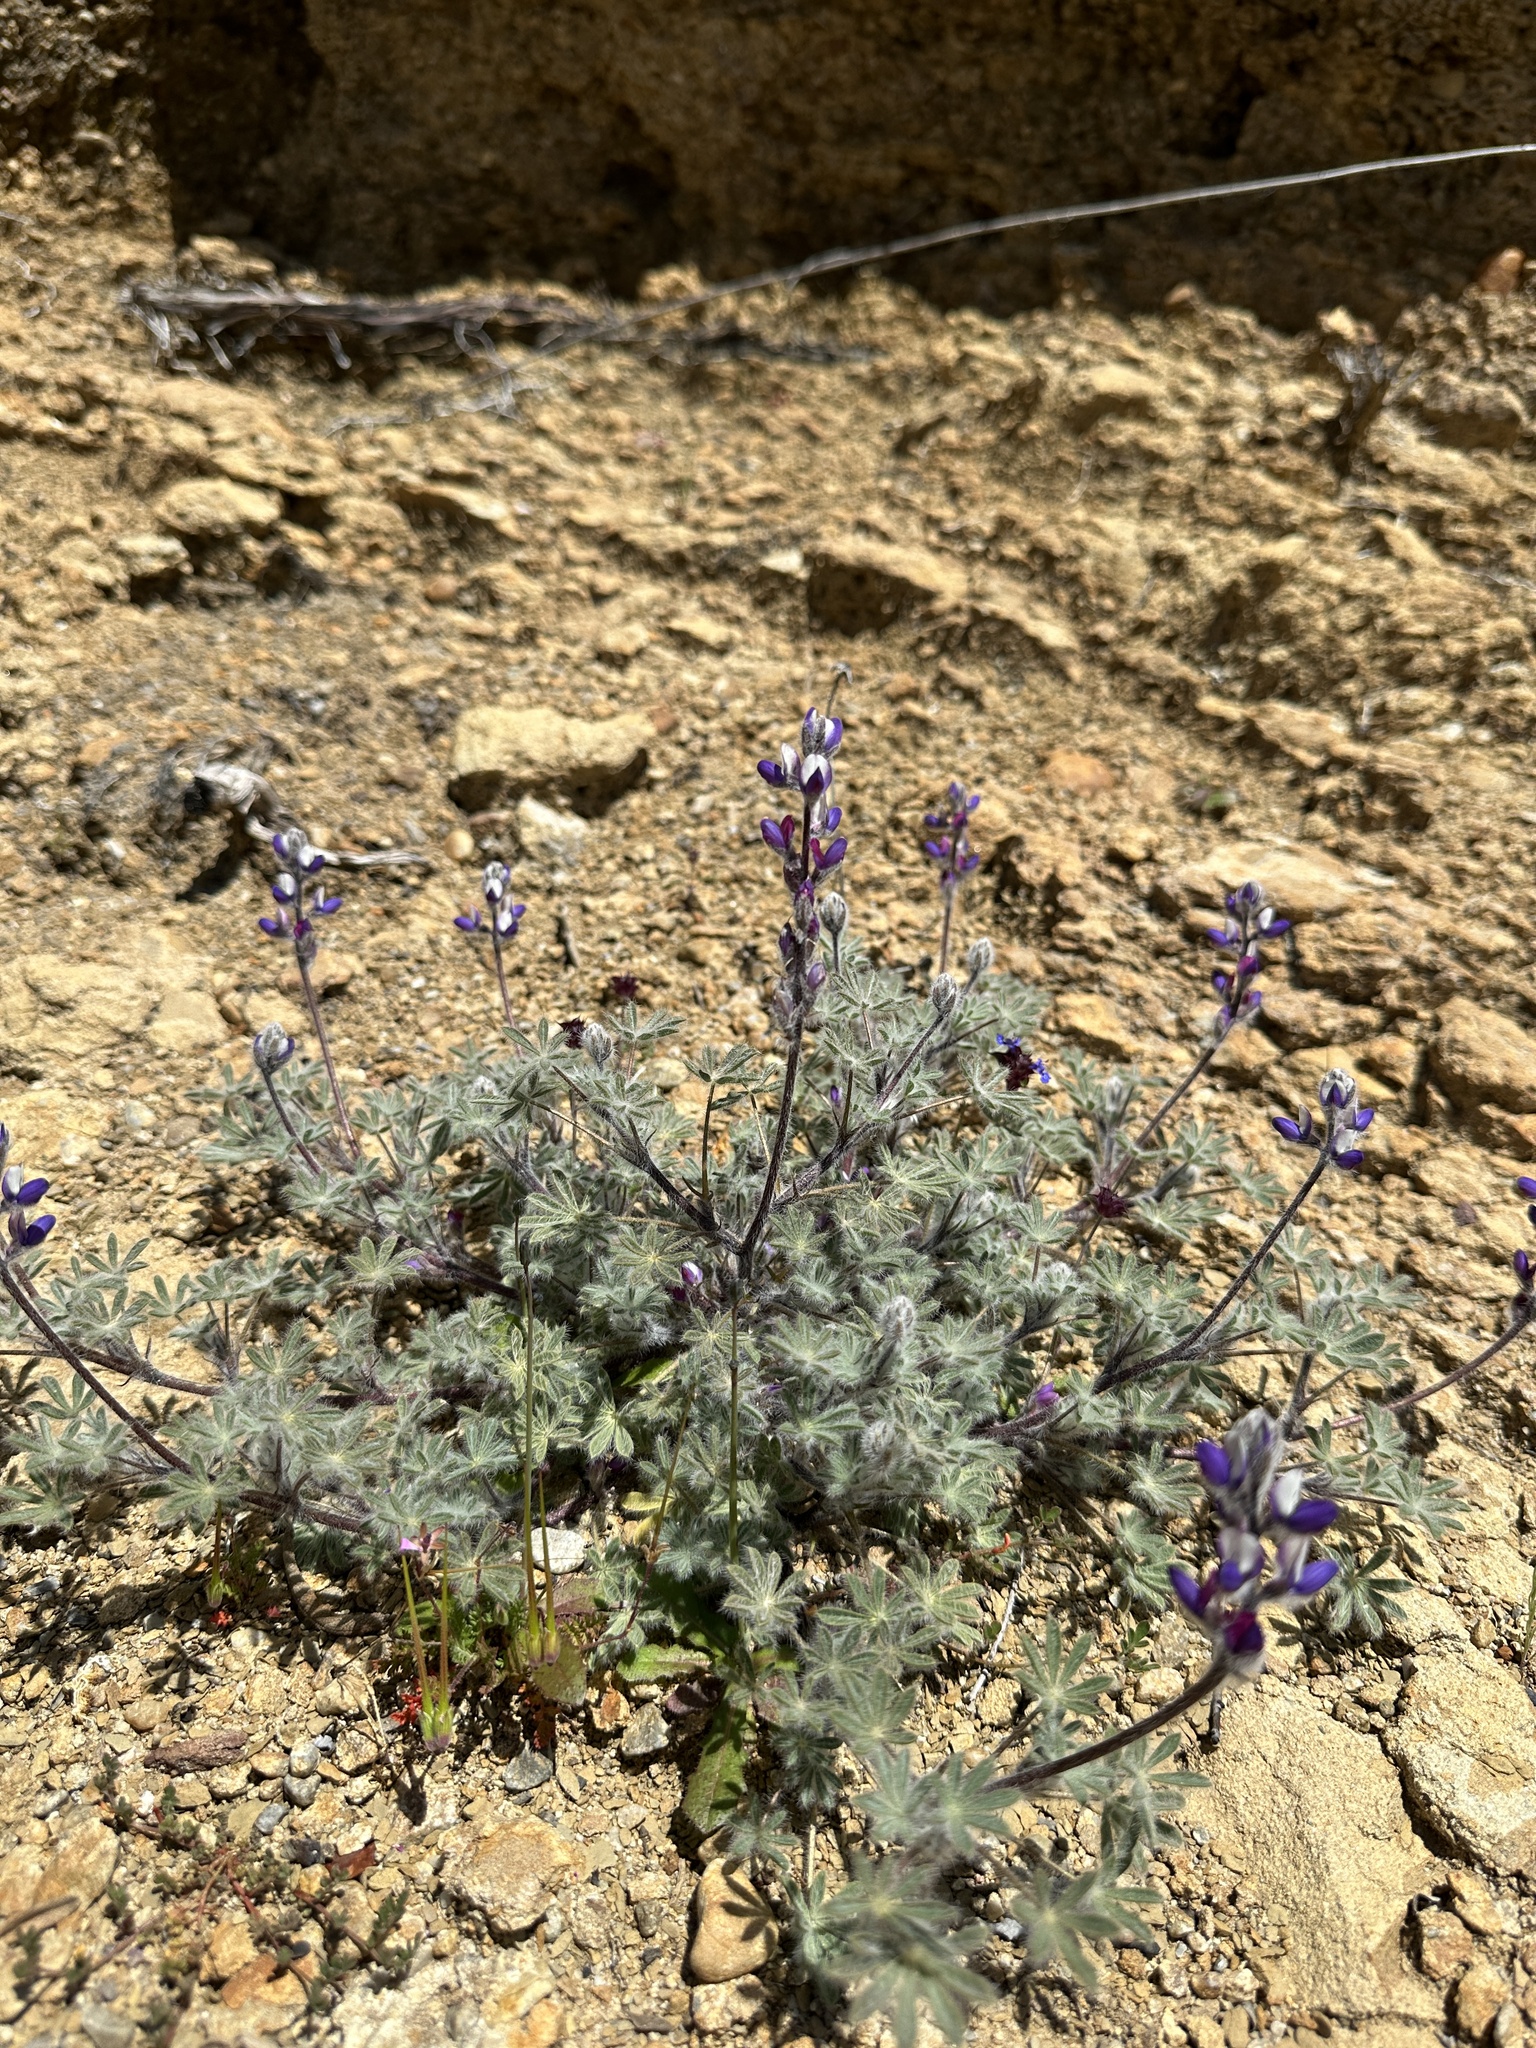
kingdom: Plantae
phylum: Tracheophyta
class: Magnoliopsida
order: Fabales
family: Fabaceae
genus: Lupinus
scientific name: Lupinus concinnus
